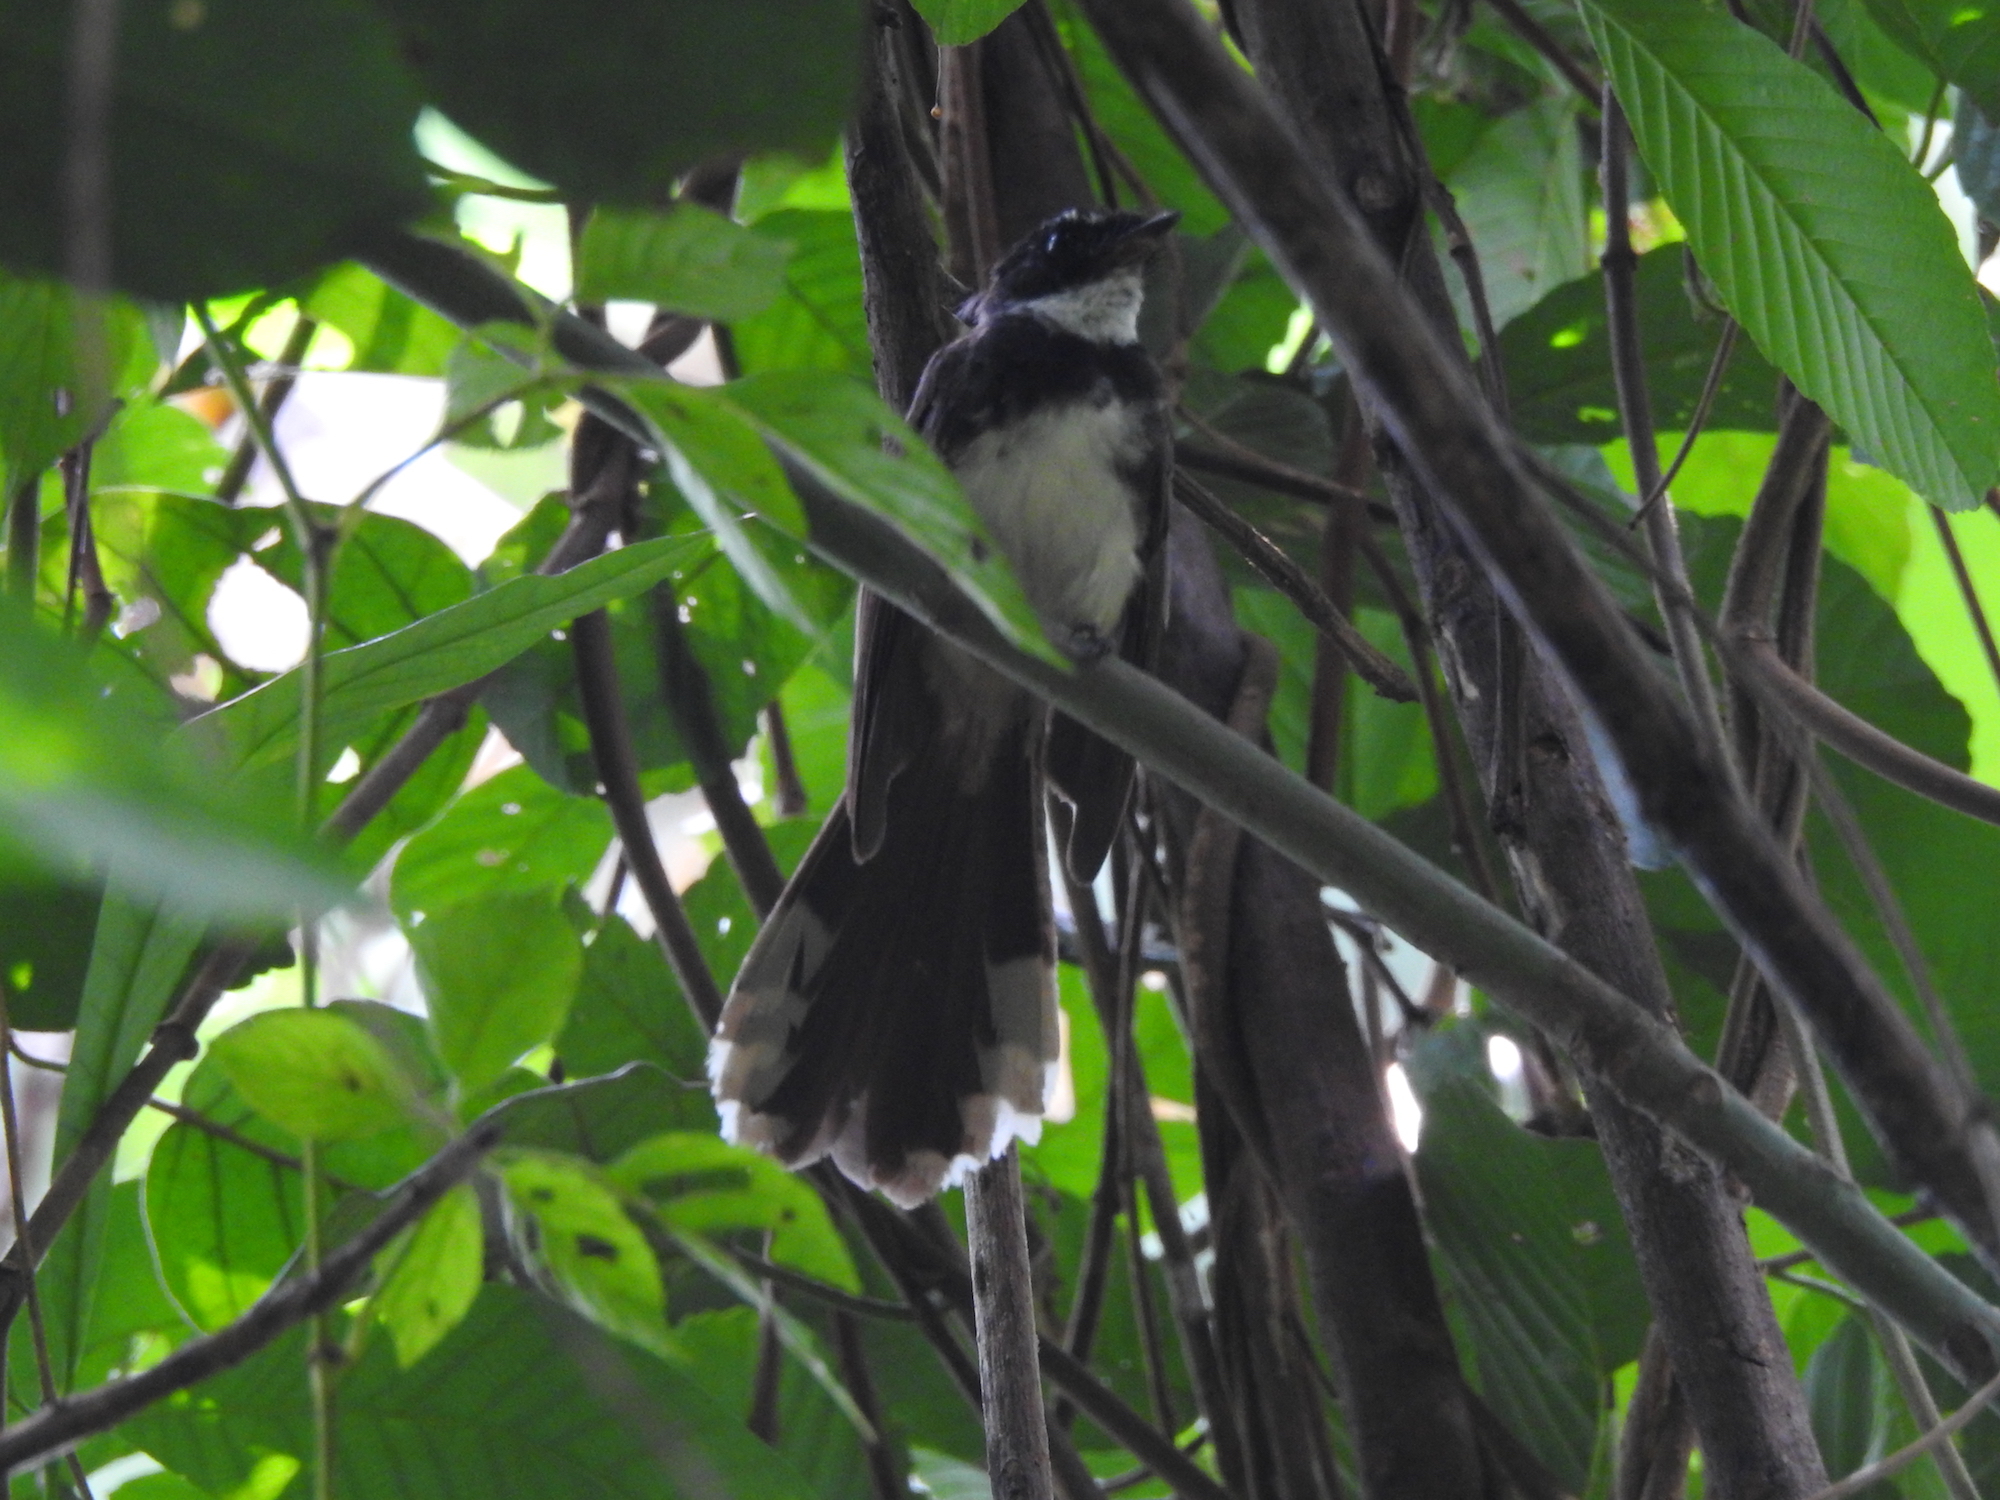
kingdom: Animalia
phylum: Chordata
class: Aves
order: Passeriformes
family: Rhipiduridae
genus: Rhipidura
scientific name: Rhipidura javanica
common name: Pied fantail
